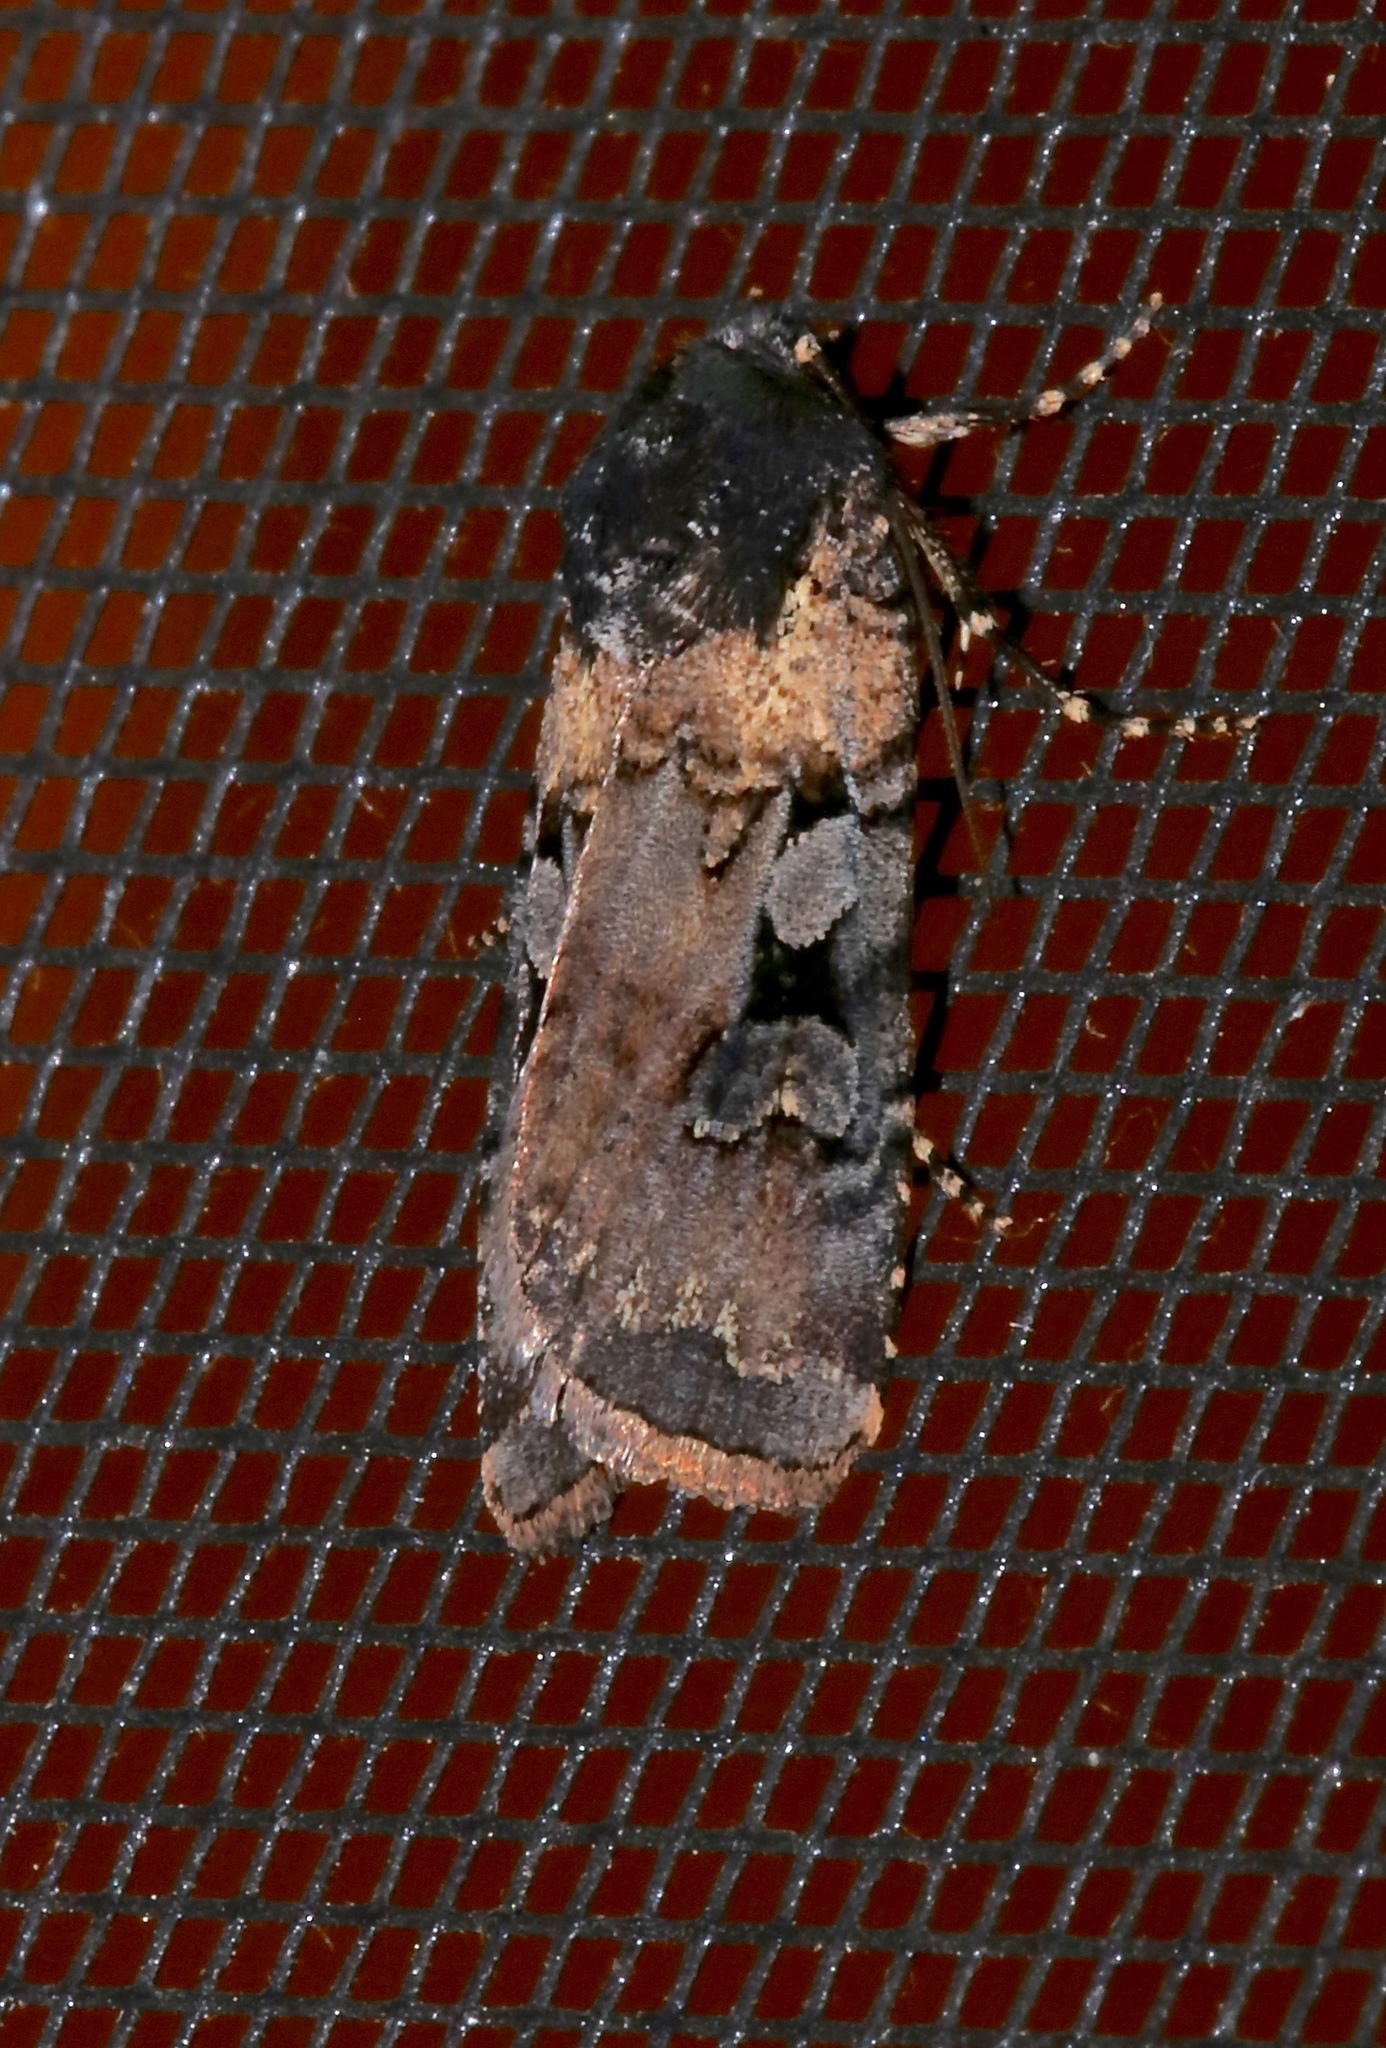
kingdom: Animalia
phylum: Arthropoda
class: Insecta
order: Lepidoptera
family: Noctuidae
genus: Euxoa
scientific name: Euxoa albipennis
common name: White-striped dart
